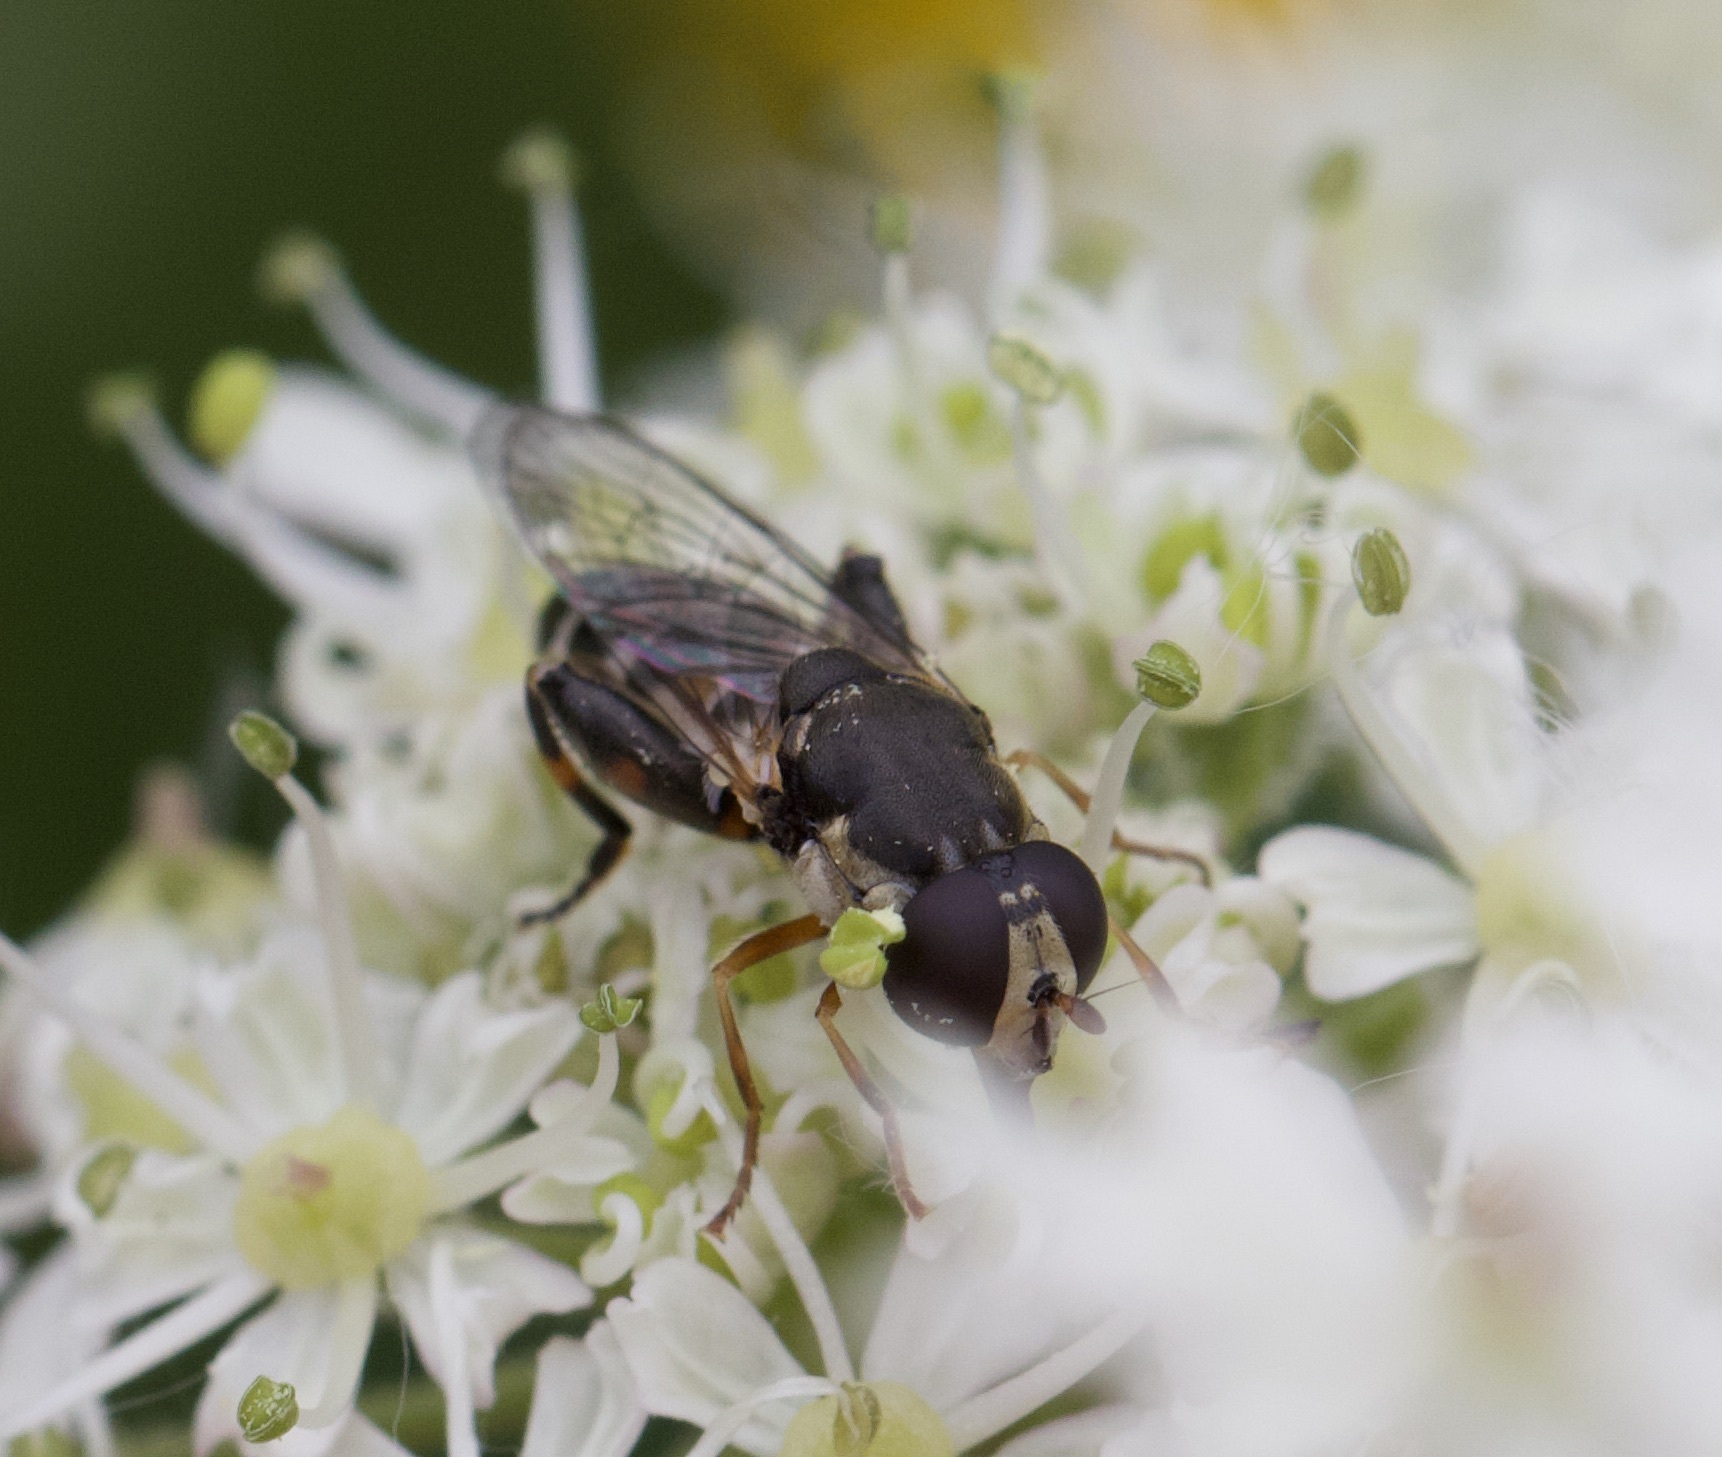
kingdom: Animalia
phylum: Arthropoda
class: Insecta
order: Diptera
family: Syrphidae
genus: Syritta
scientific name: Syritta pipiens
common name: Hover fly
